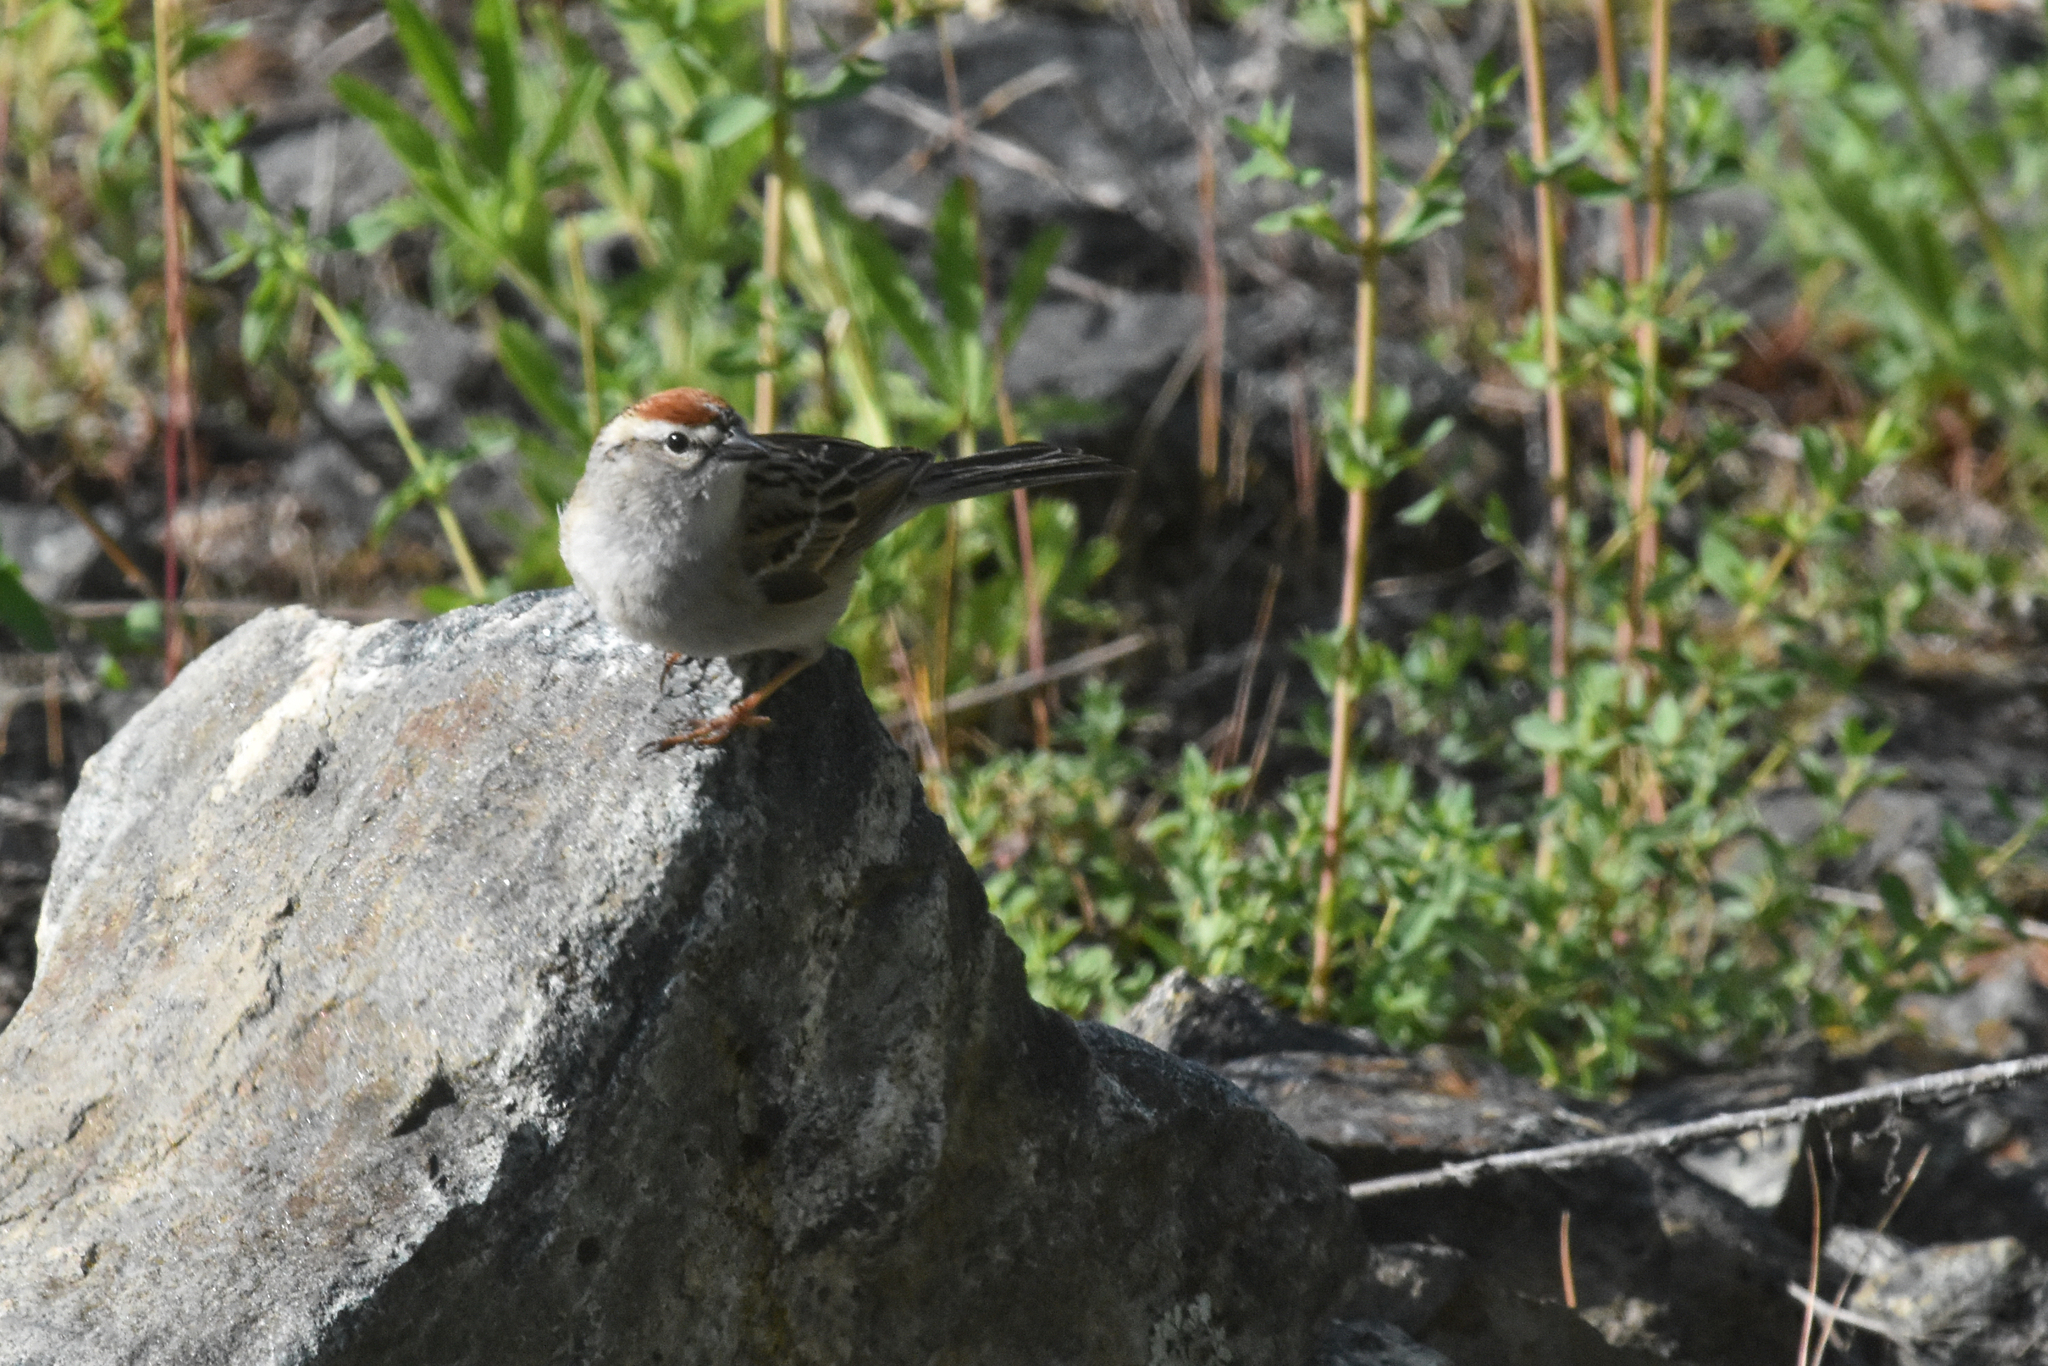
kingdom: Animalia
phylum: Chordata
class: Aves
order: Passeriformes
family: Passerellidae
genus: Spizella
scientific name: Spizella passerina
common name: Chipping sparrow
